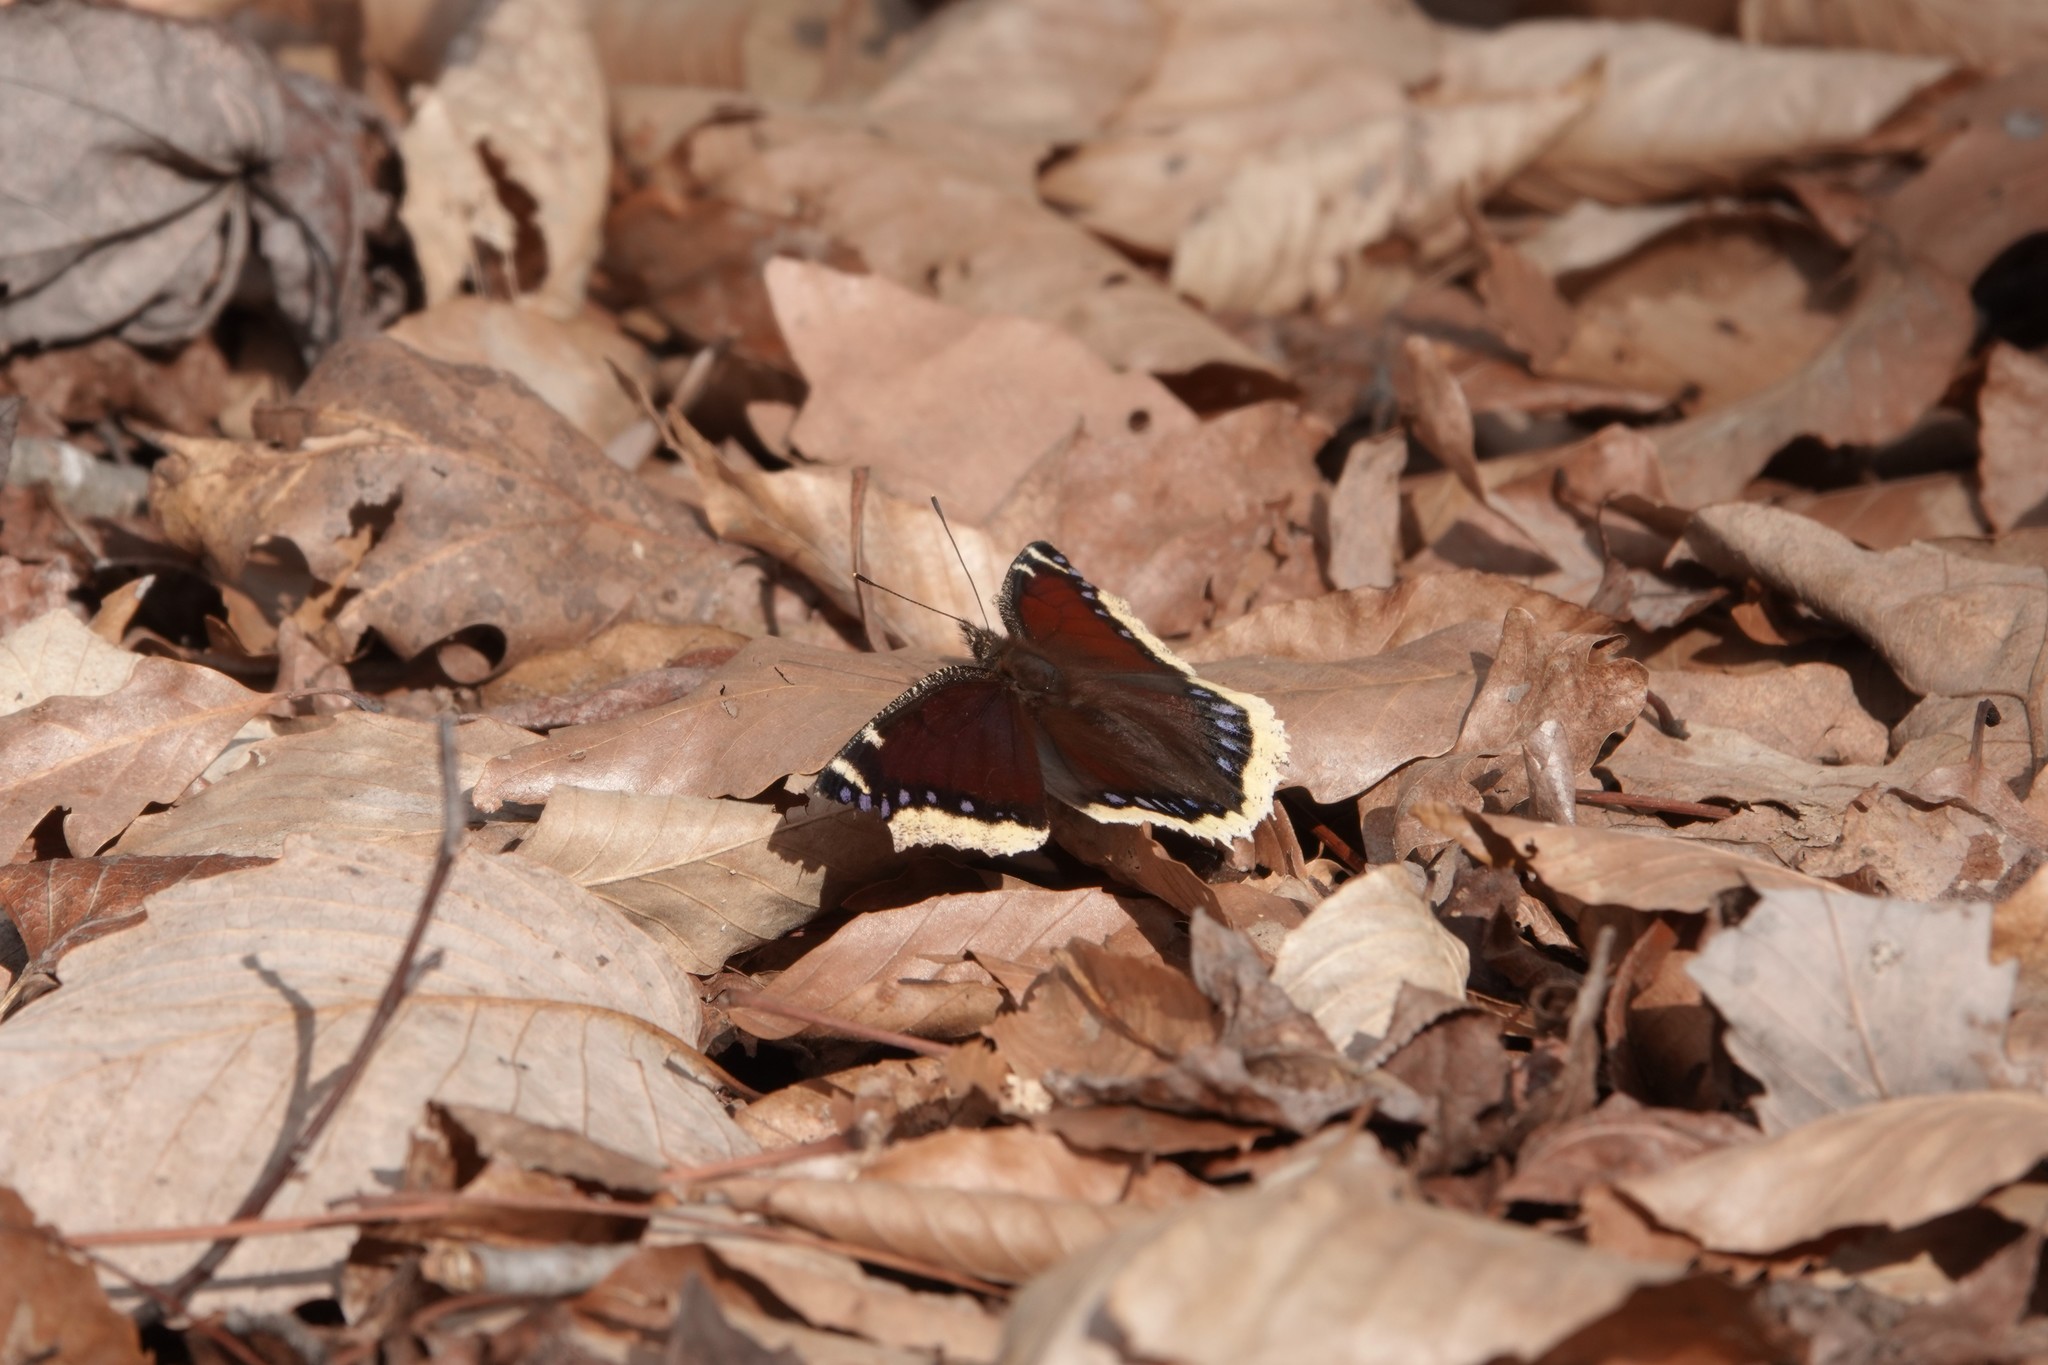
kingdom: Animalia
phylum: Arthropoda
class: Insecta
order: Lepidoptera
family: Nymphalidae
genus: Nymphalis
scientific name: Nymphalis antiopa
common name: Camberwell beauty
